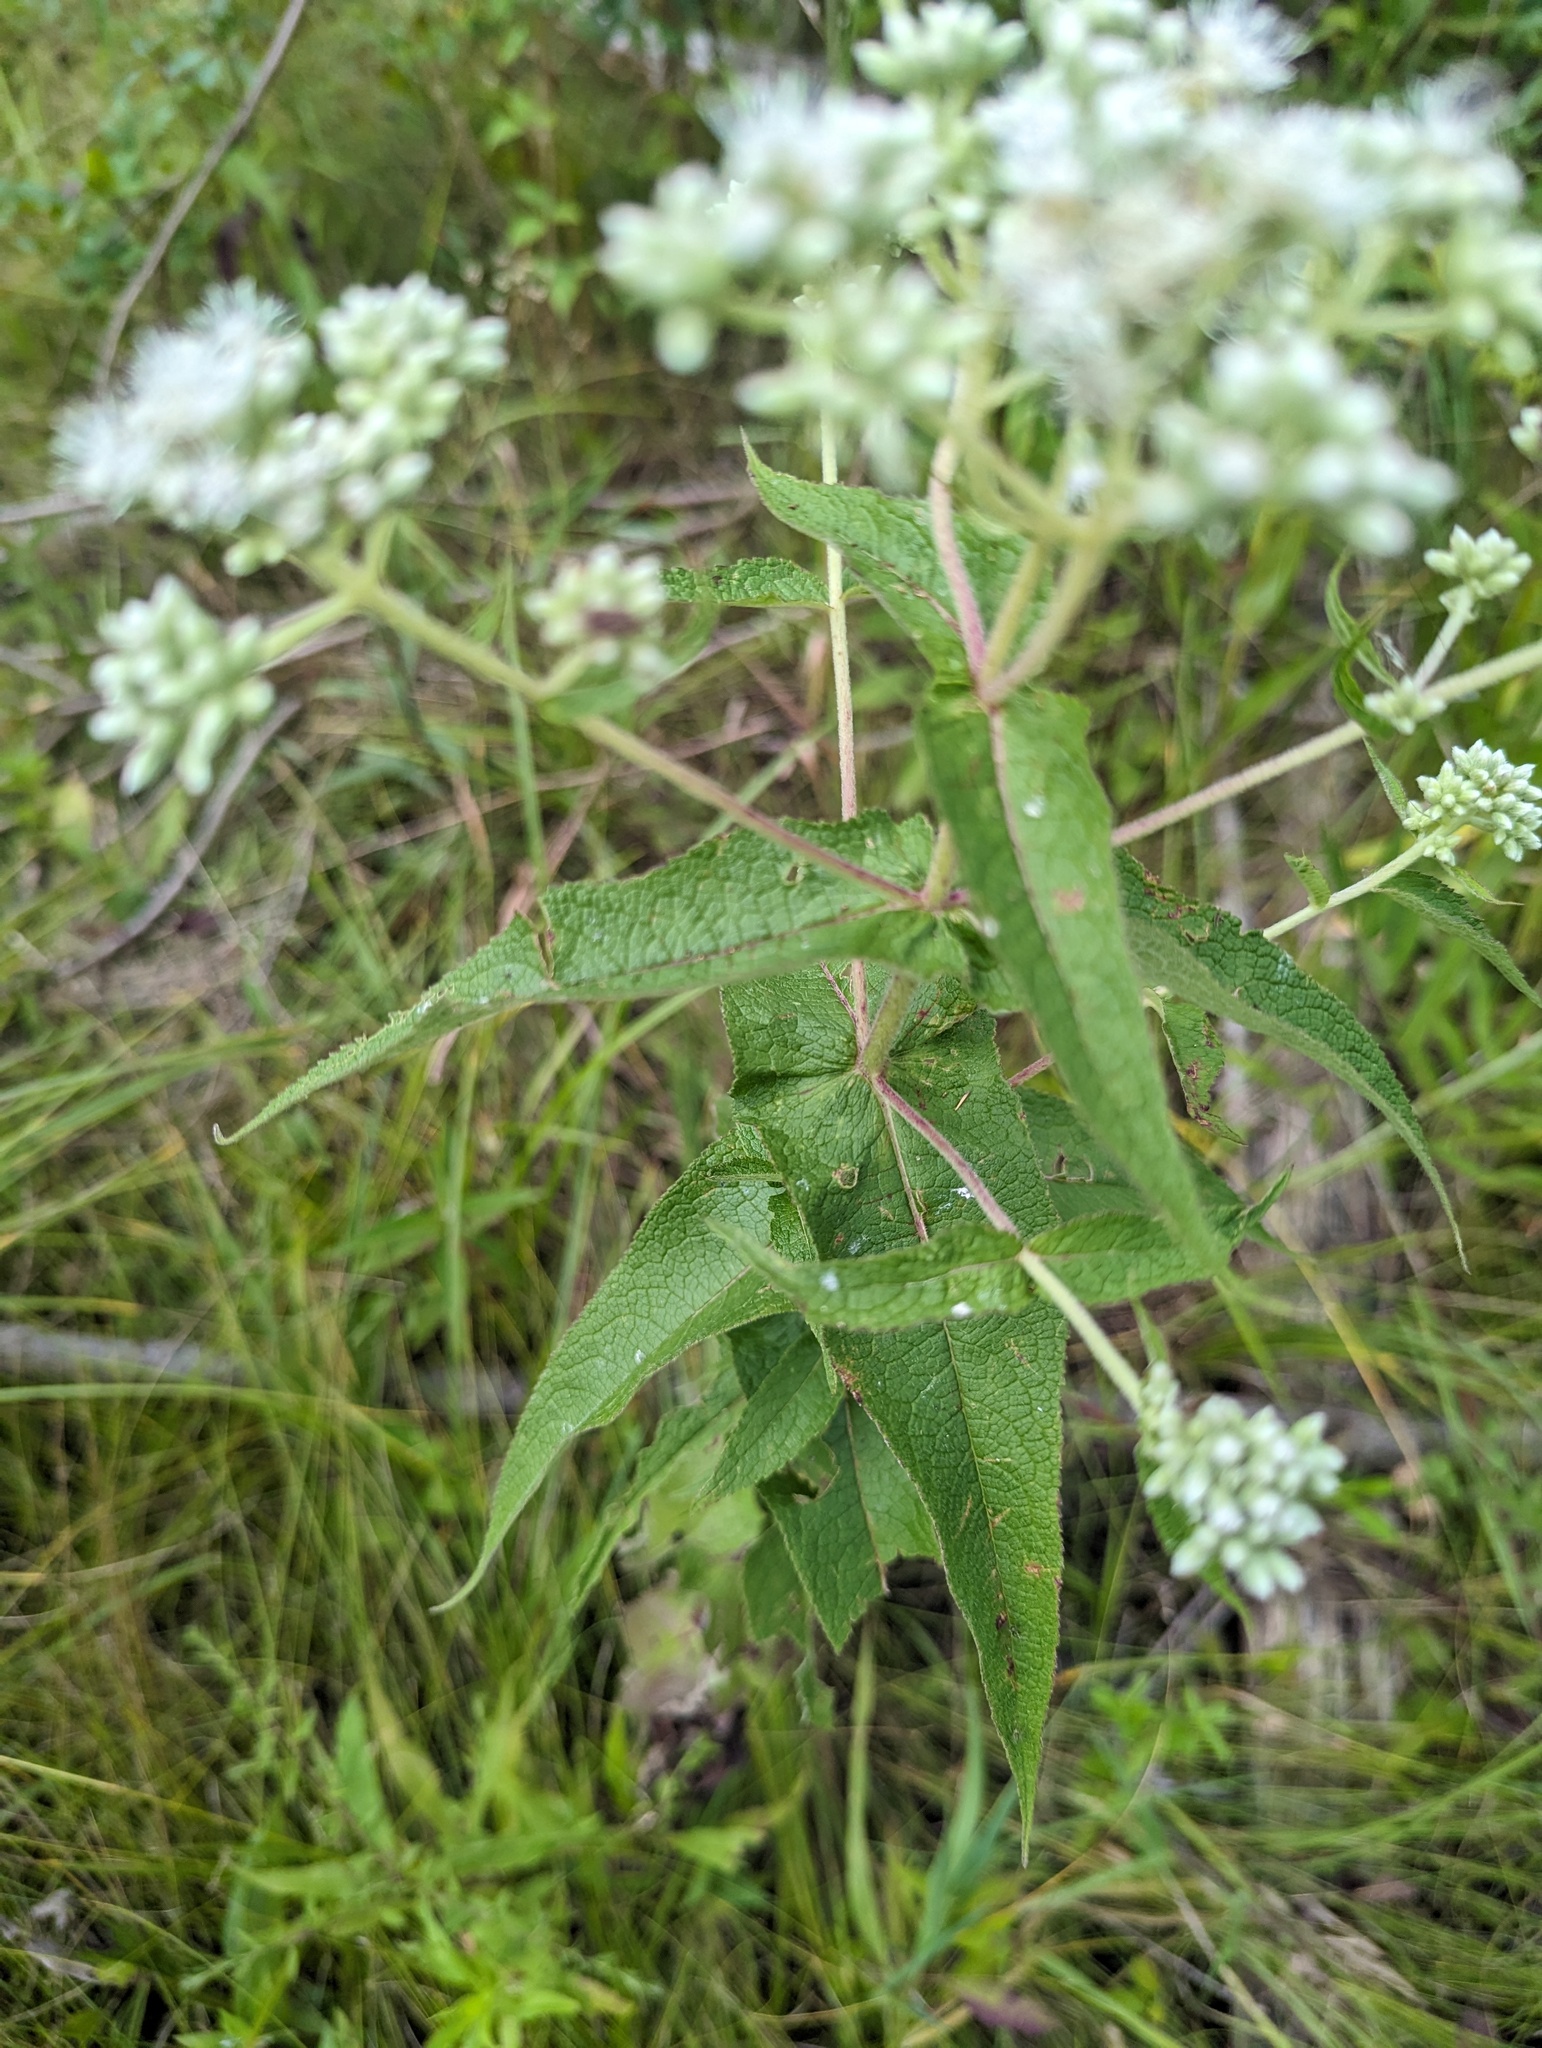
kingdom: Plantae
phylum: Tracheophyta
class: Magnoliopsida
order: Asterales
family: Asteraceae
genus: Eupatorium
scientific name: Eupatorium perfoliatum
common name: Boneset
